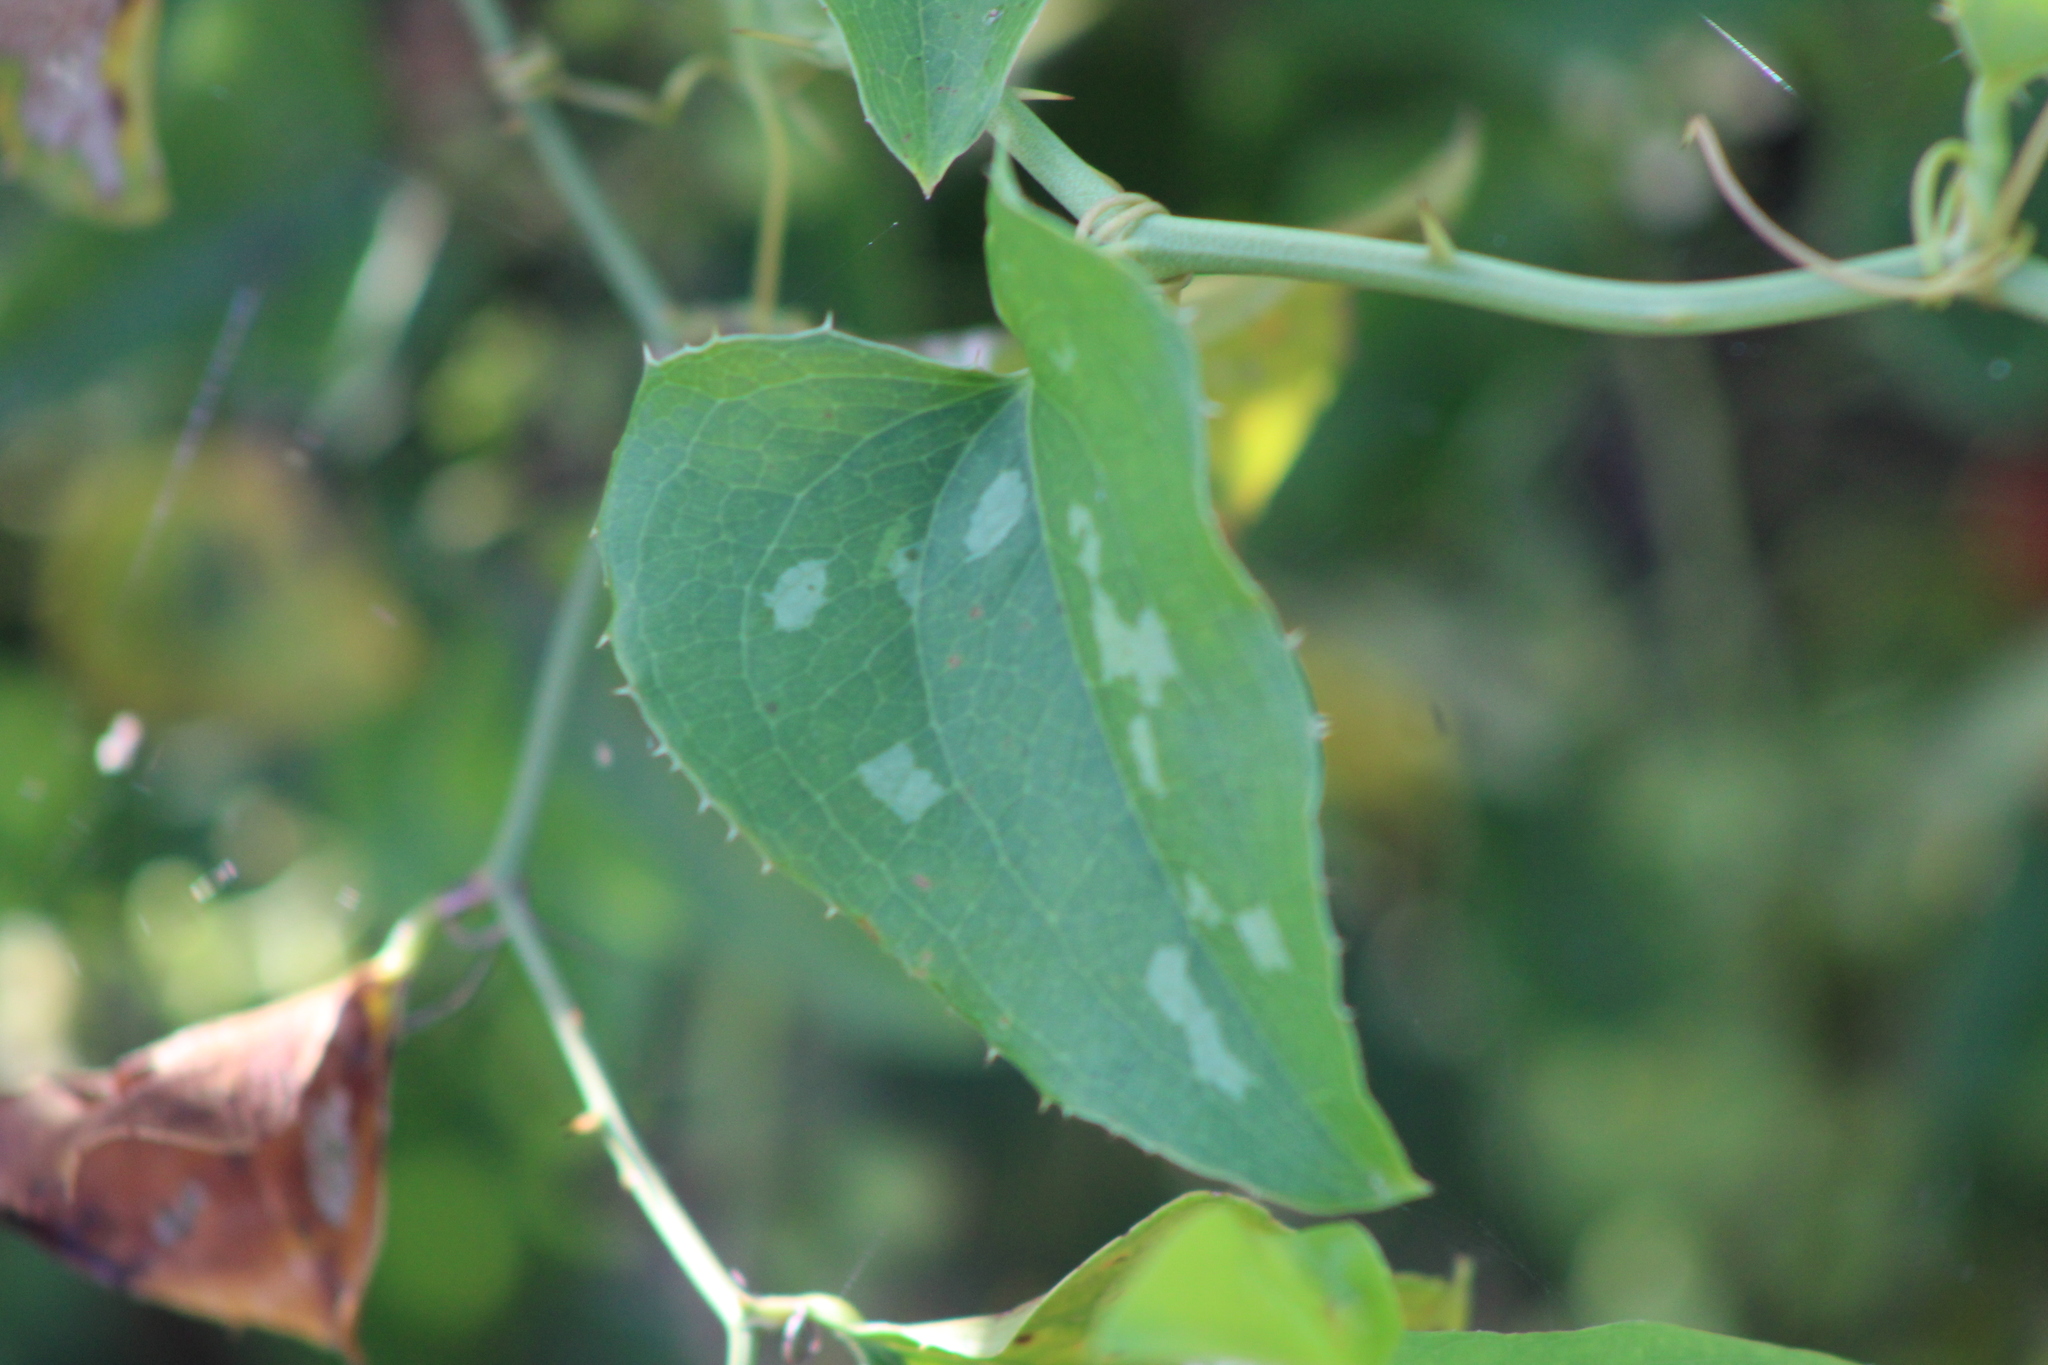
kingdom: Plantae
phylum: Tracheophyta
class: Liliopsida
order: Liliales
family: Smilacaceae
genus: Smilax
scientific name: Smilax bona-nox
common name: Catbrier
